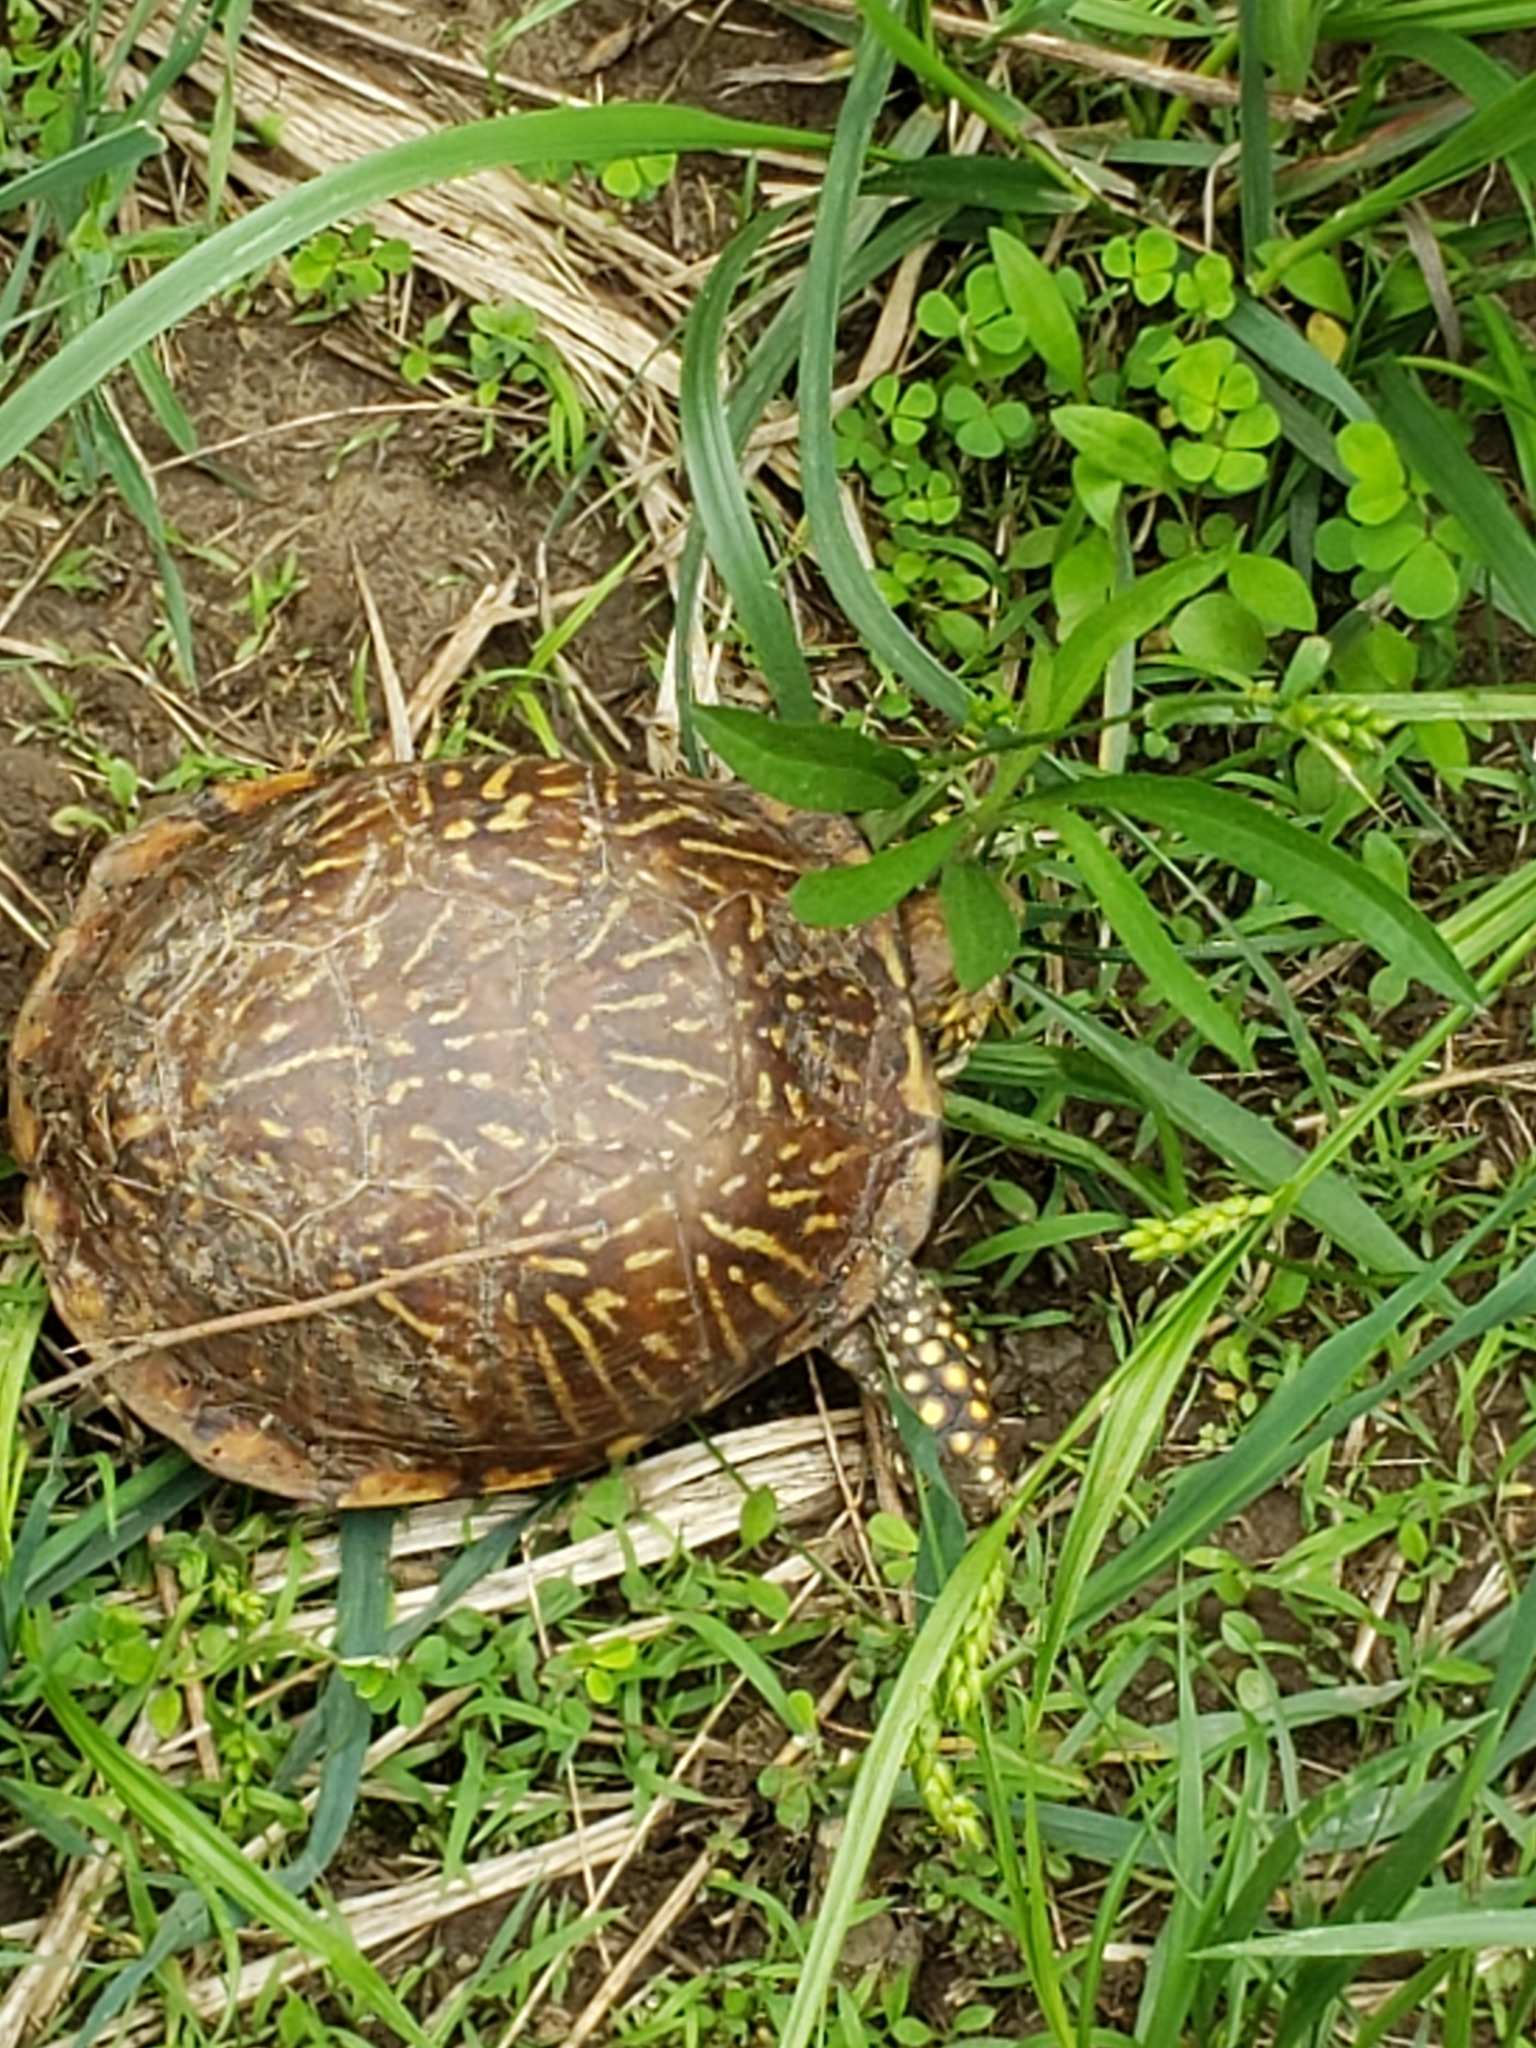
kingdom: Animalia
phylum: Chordata
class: Testudines
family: Emydidae
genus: Terrapene
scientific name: Terrapene ornata
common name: Western box turtle
